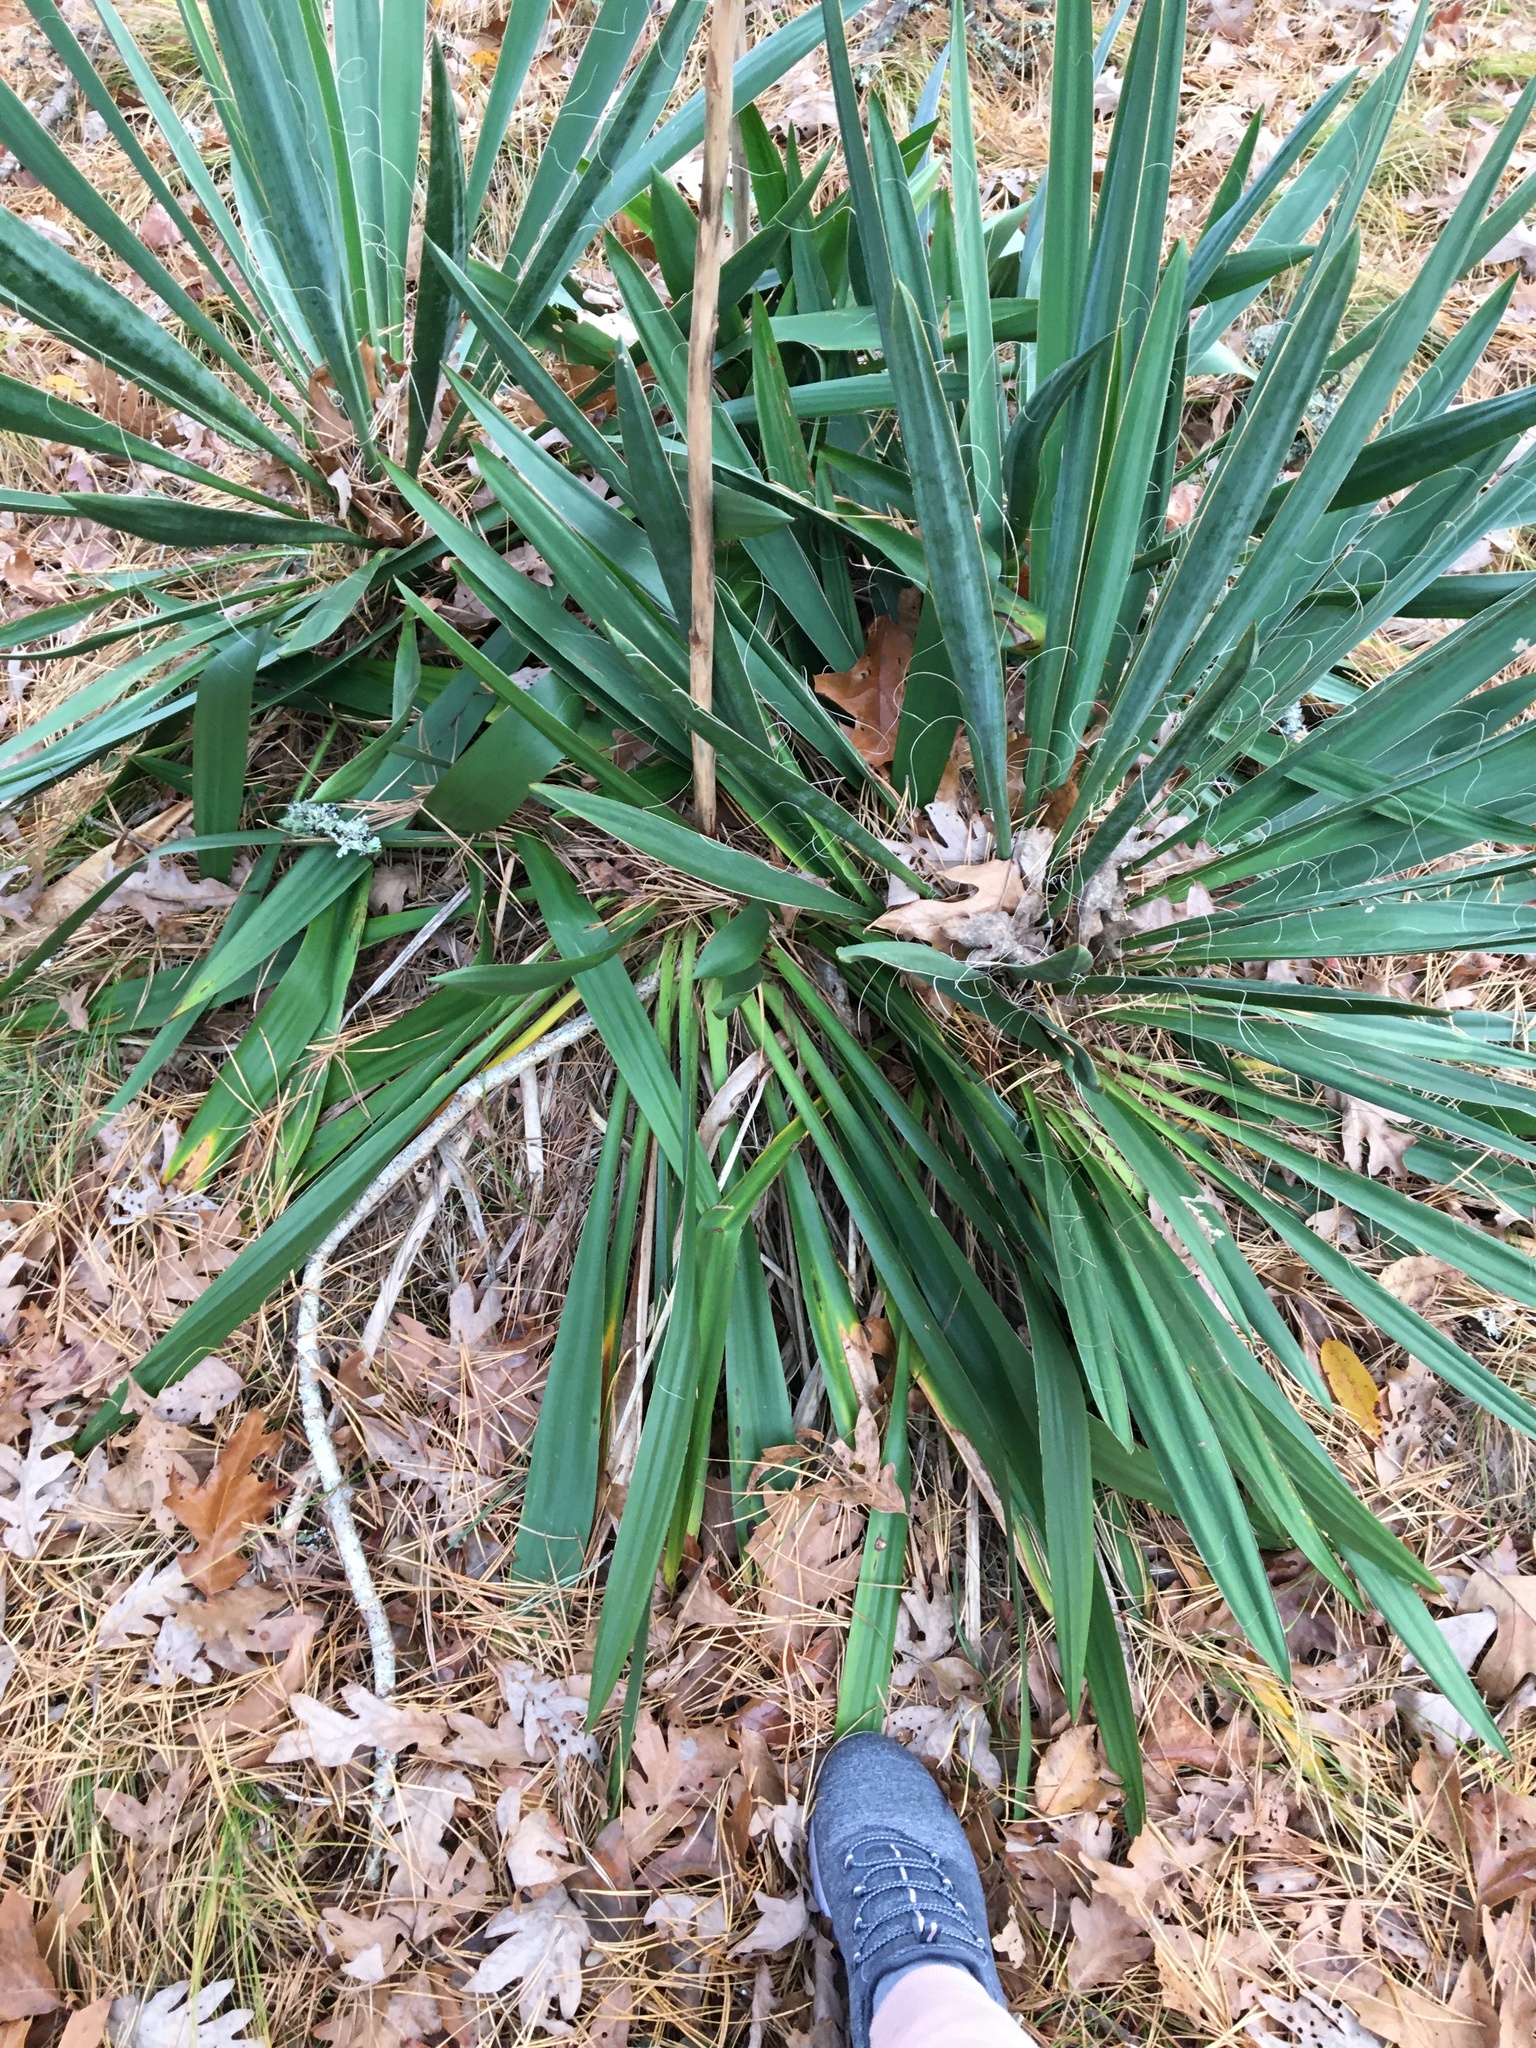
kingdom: Plantae
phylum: Tracheophyta
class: Liliopsida
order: Asparagales
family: Asparagaceae
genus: Yucca
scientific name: Yucca filamentosa
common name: Adam's-needle
